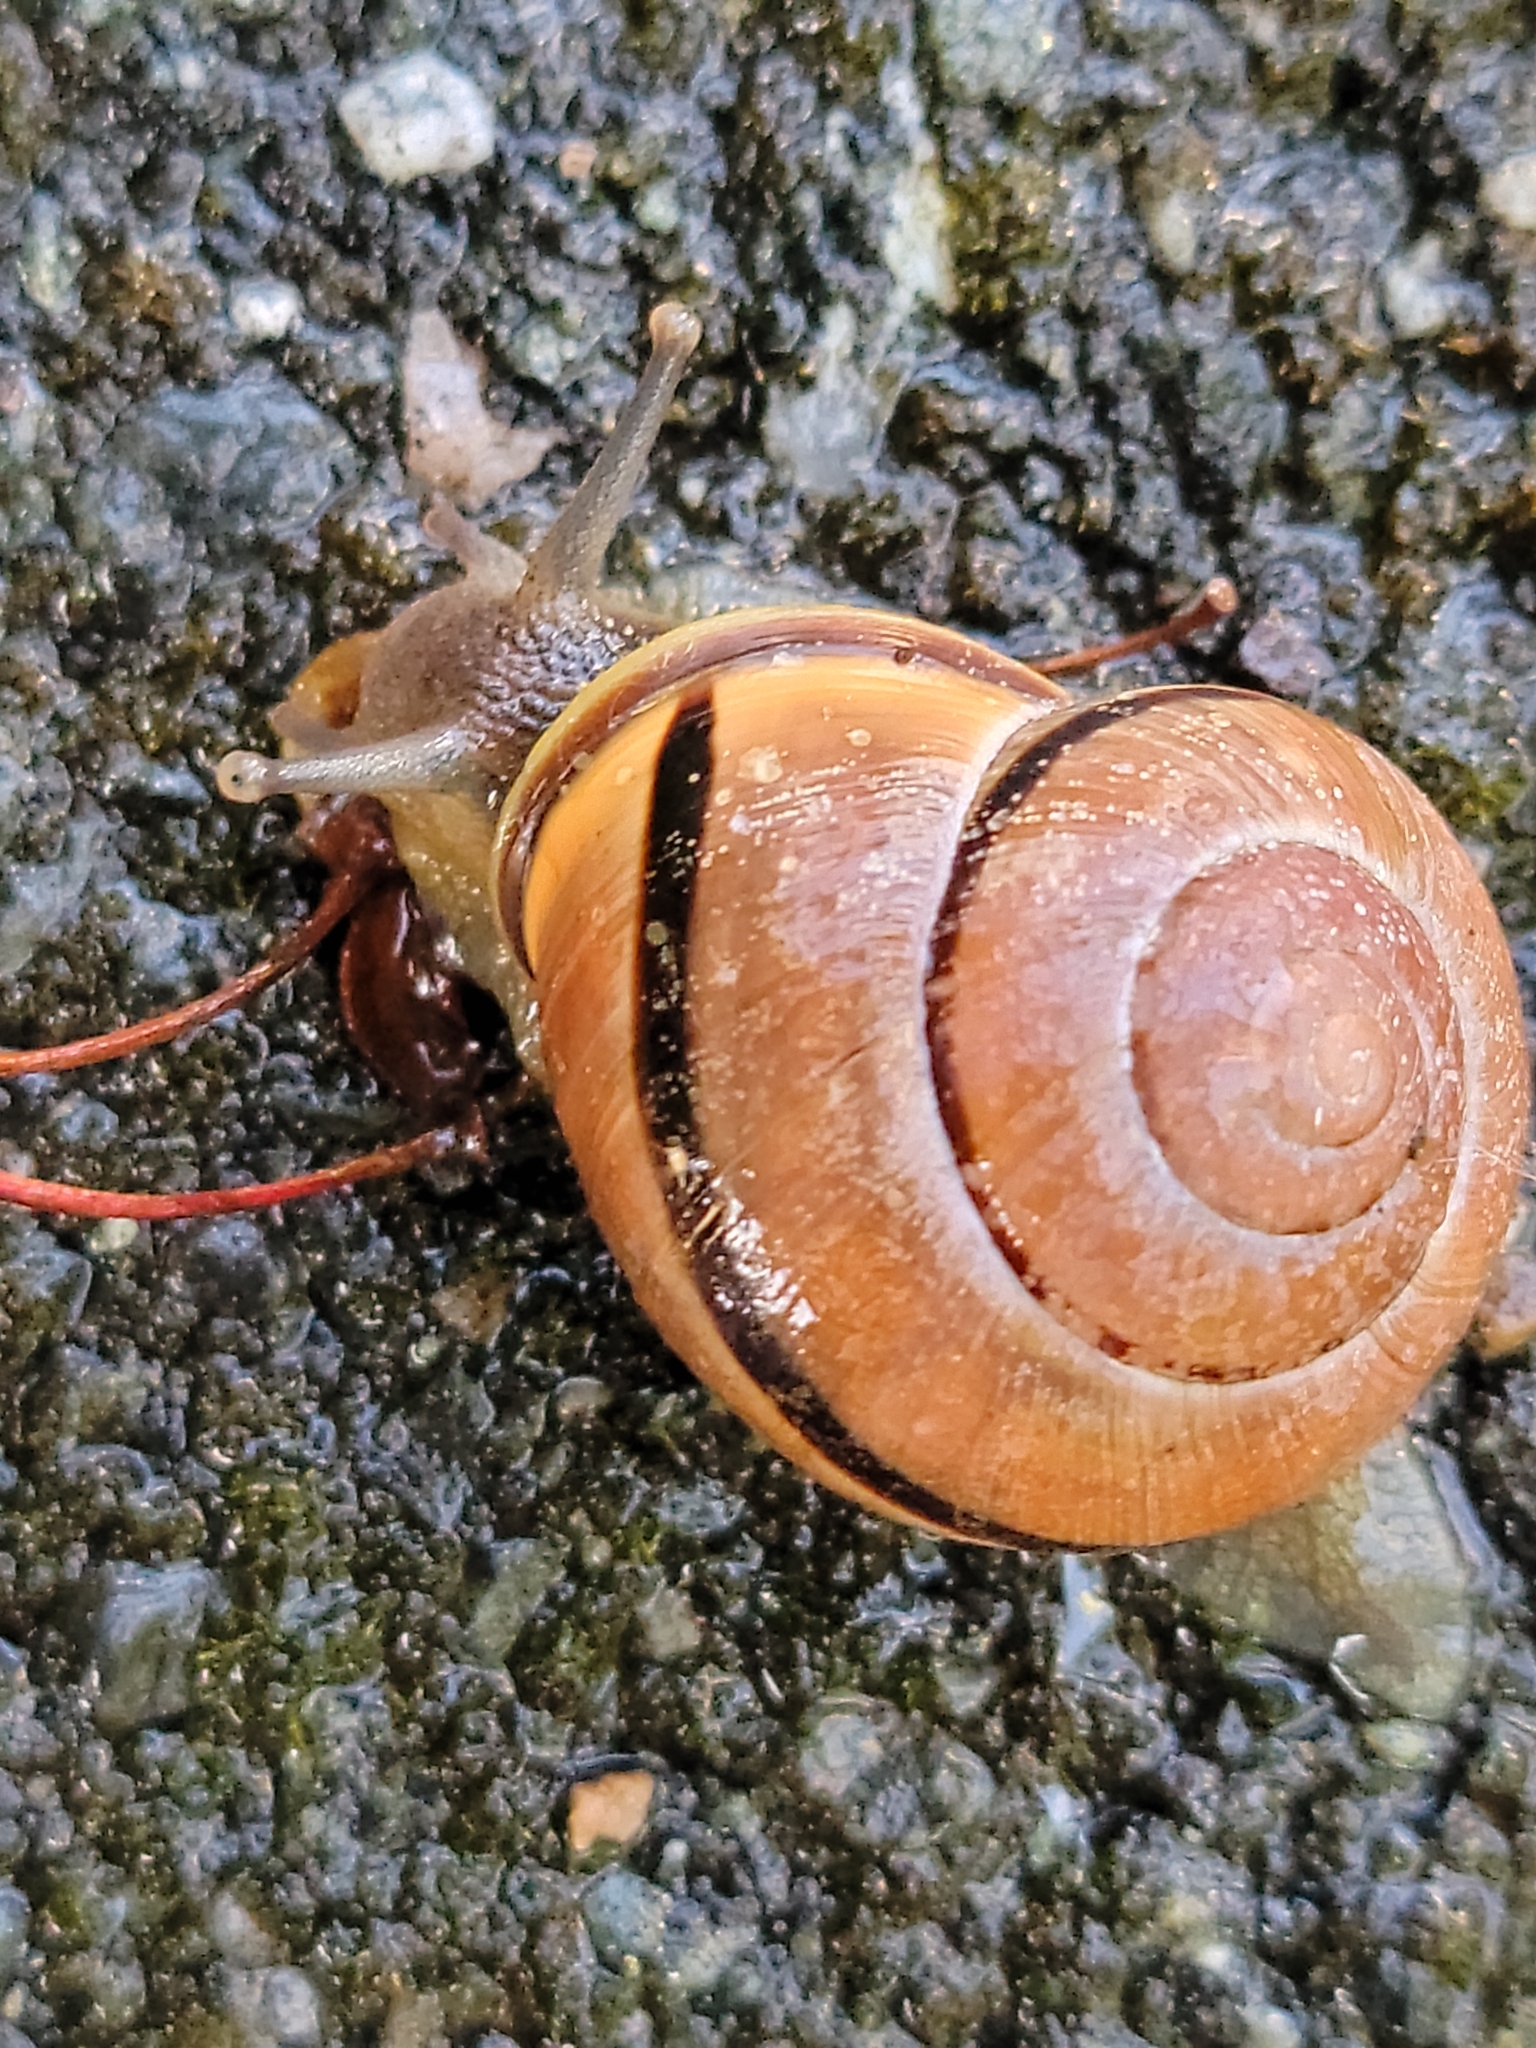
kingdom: Animalia
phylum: Mollusca
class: Gastropoda
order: Stylommatophora
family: Helicidae
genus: Cepaea
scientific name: Cepaea nemoralis
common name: Grovesnail
